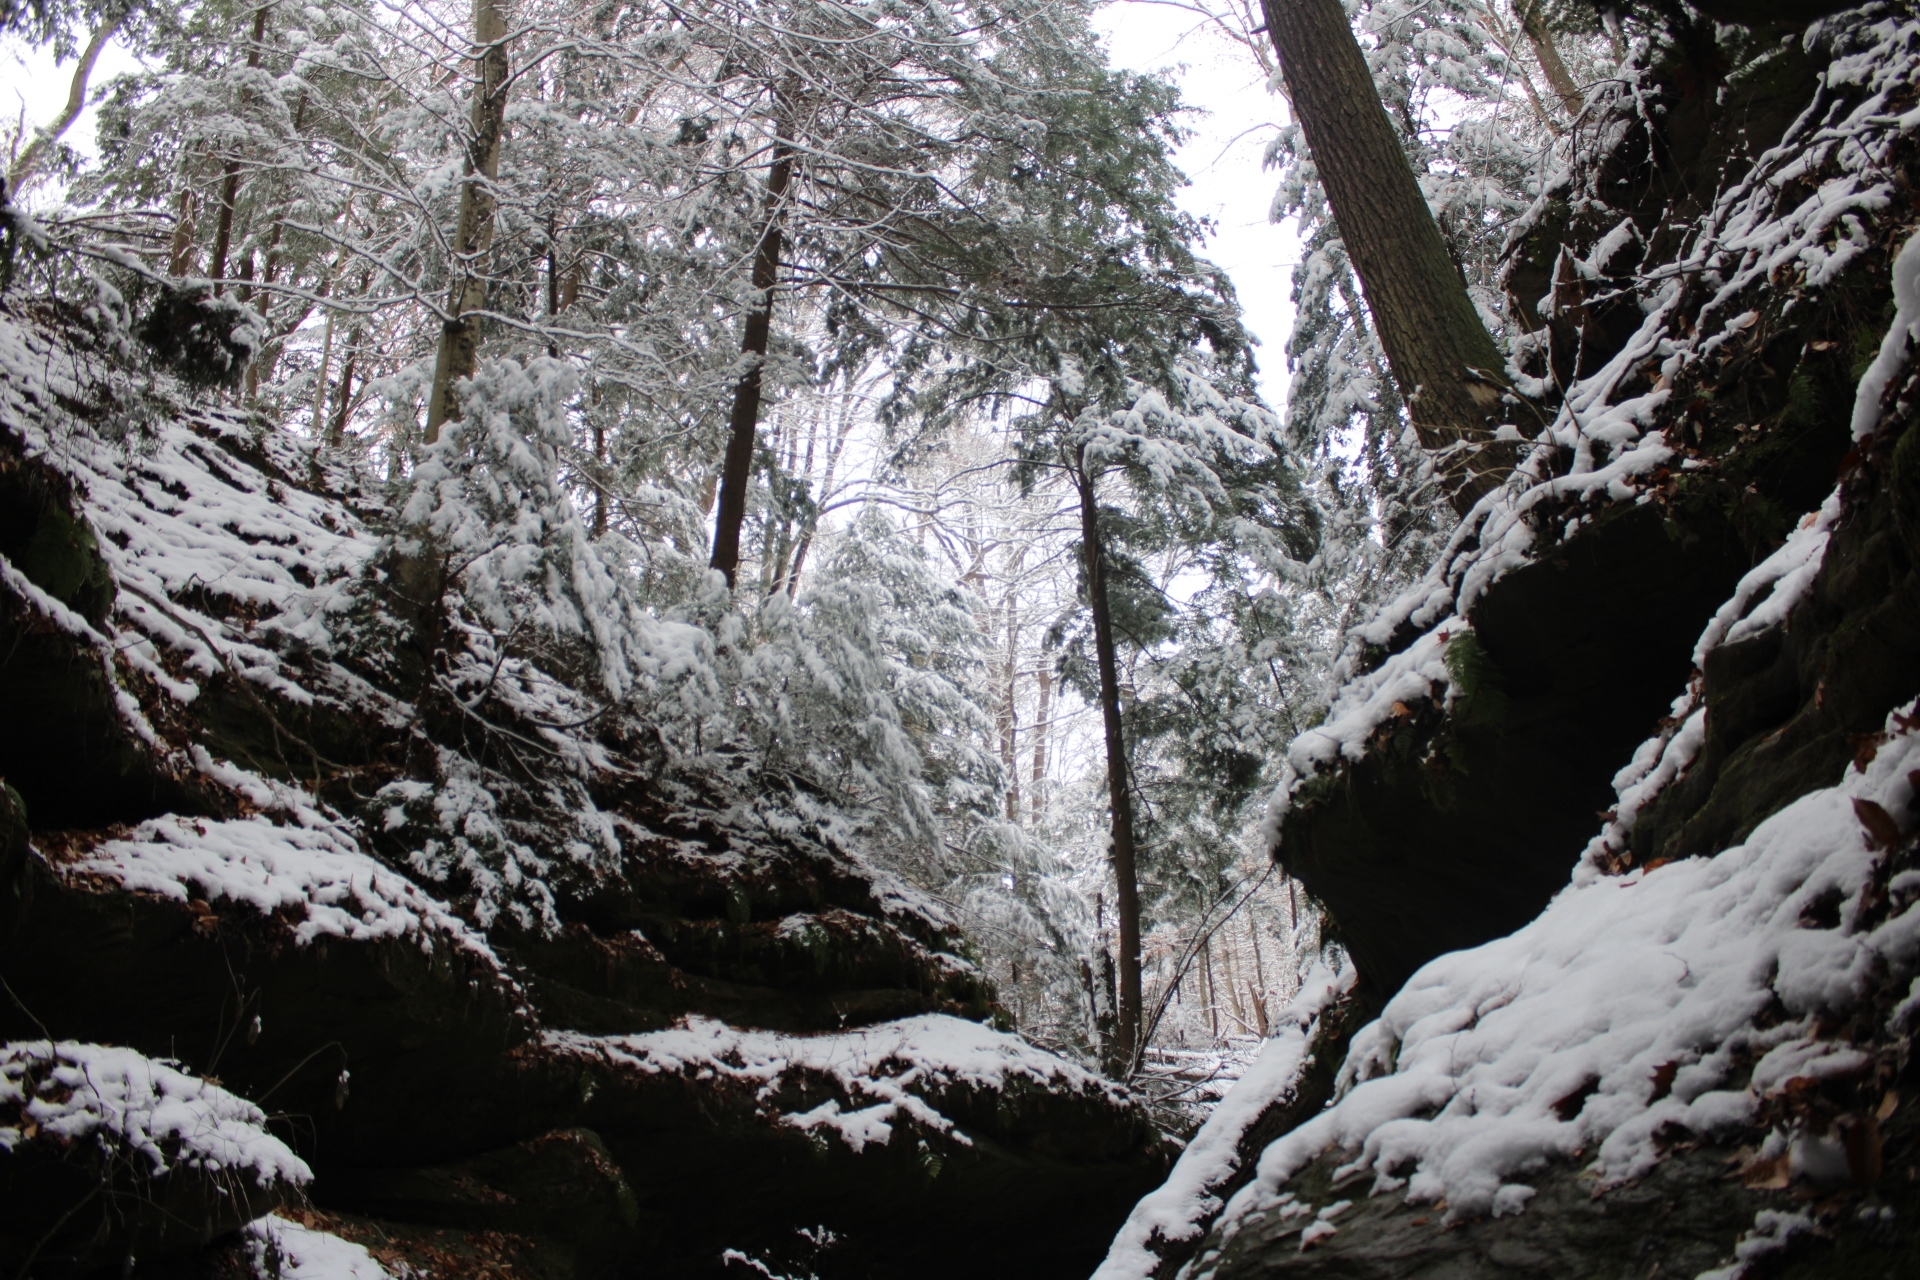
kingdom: Plantae
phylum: Tracheophyta
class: Pinopsida
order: Pinales
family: Pinaceae
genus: Tsuga
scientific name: Tsuga canadensis
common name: Eastern hemlock
